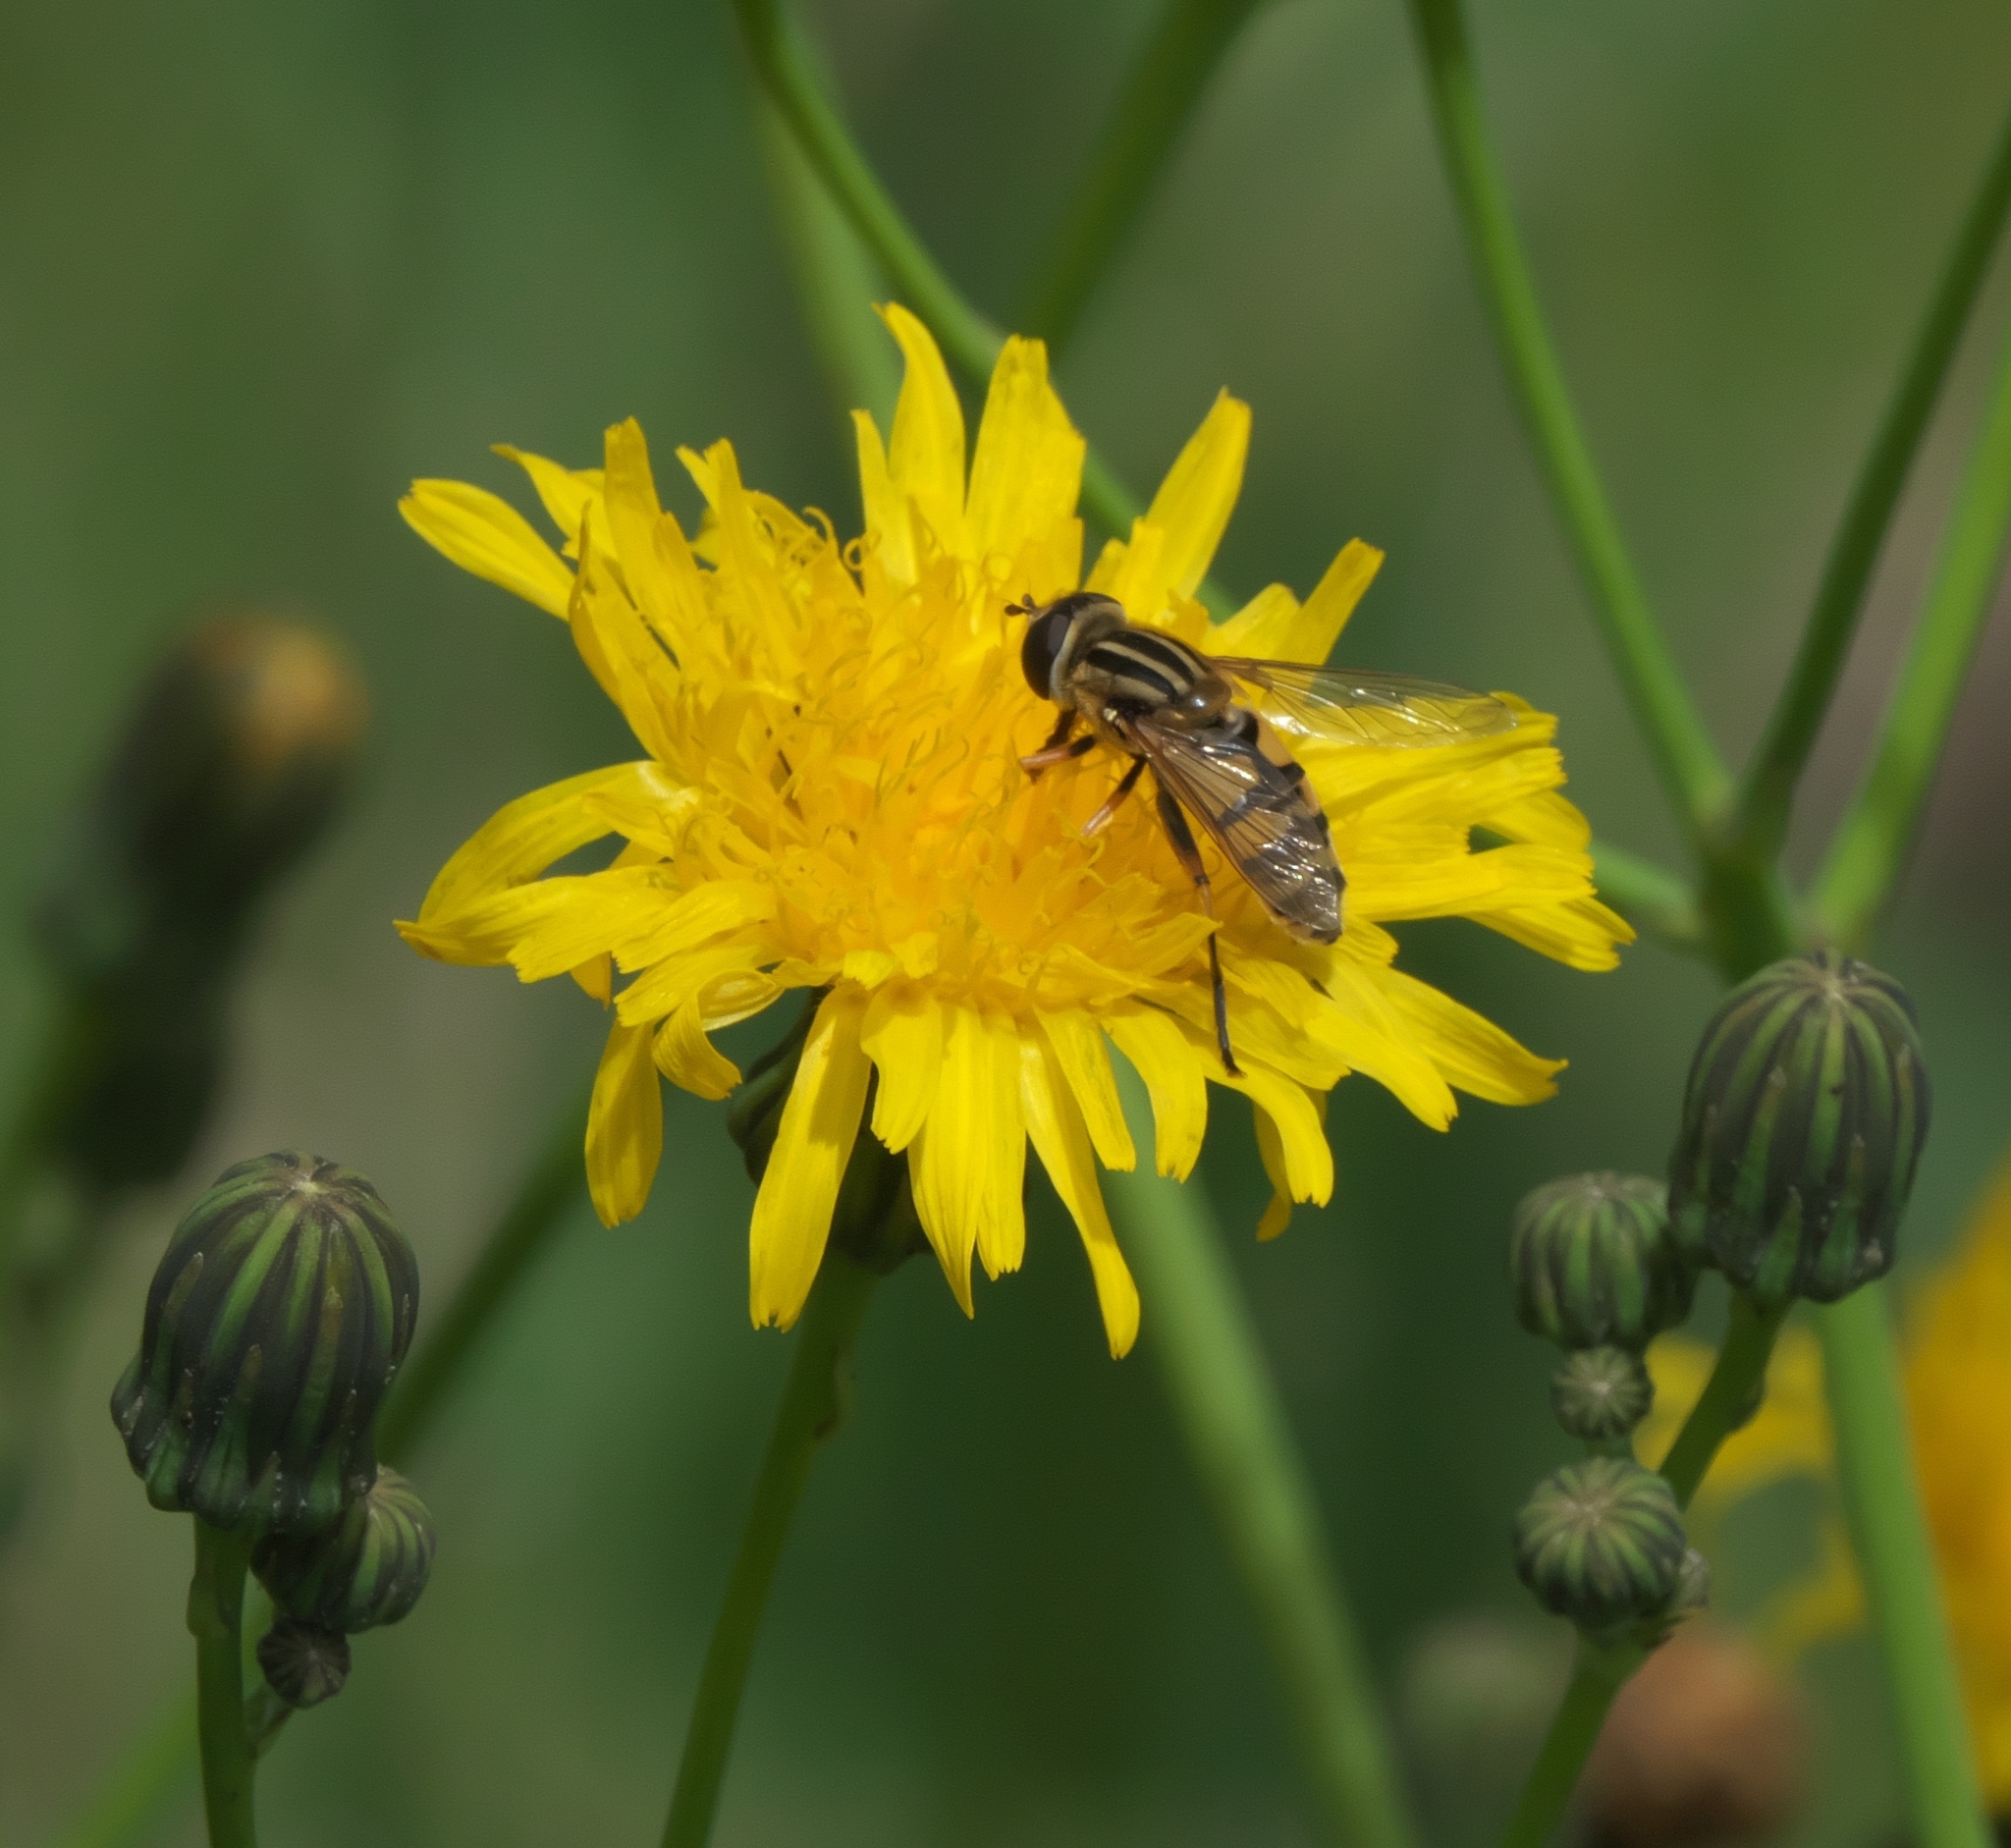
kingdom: Animalia
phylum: Arthropoda
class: Insecta
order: Diptera
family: Syrphidae
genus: Helophilus
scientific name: Helophilus latifrons
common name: Broad-headed marsh fly
